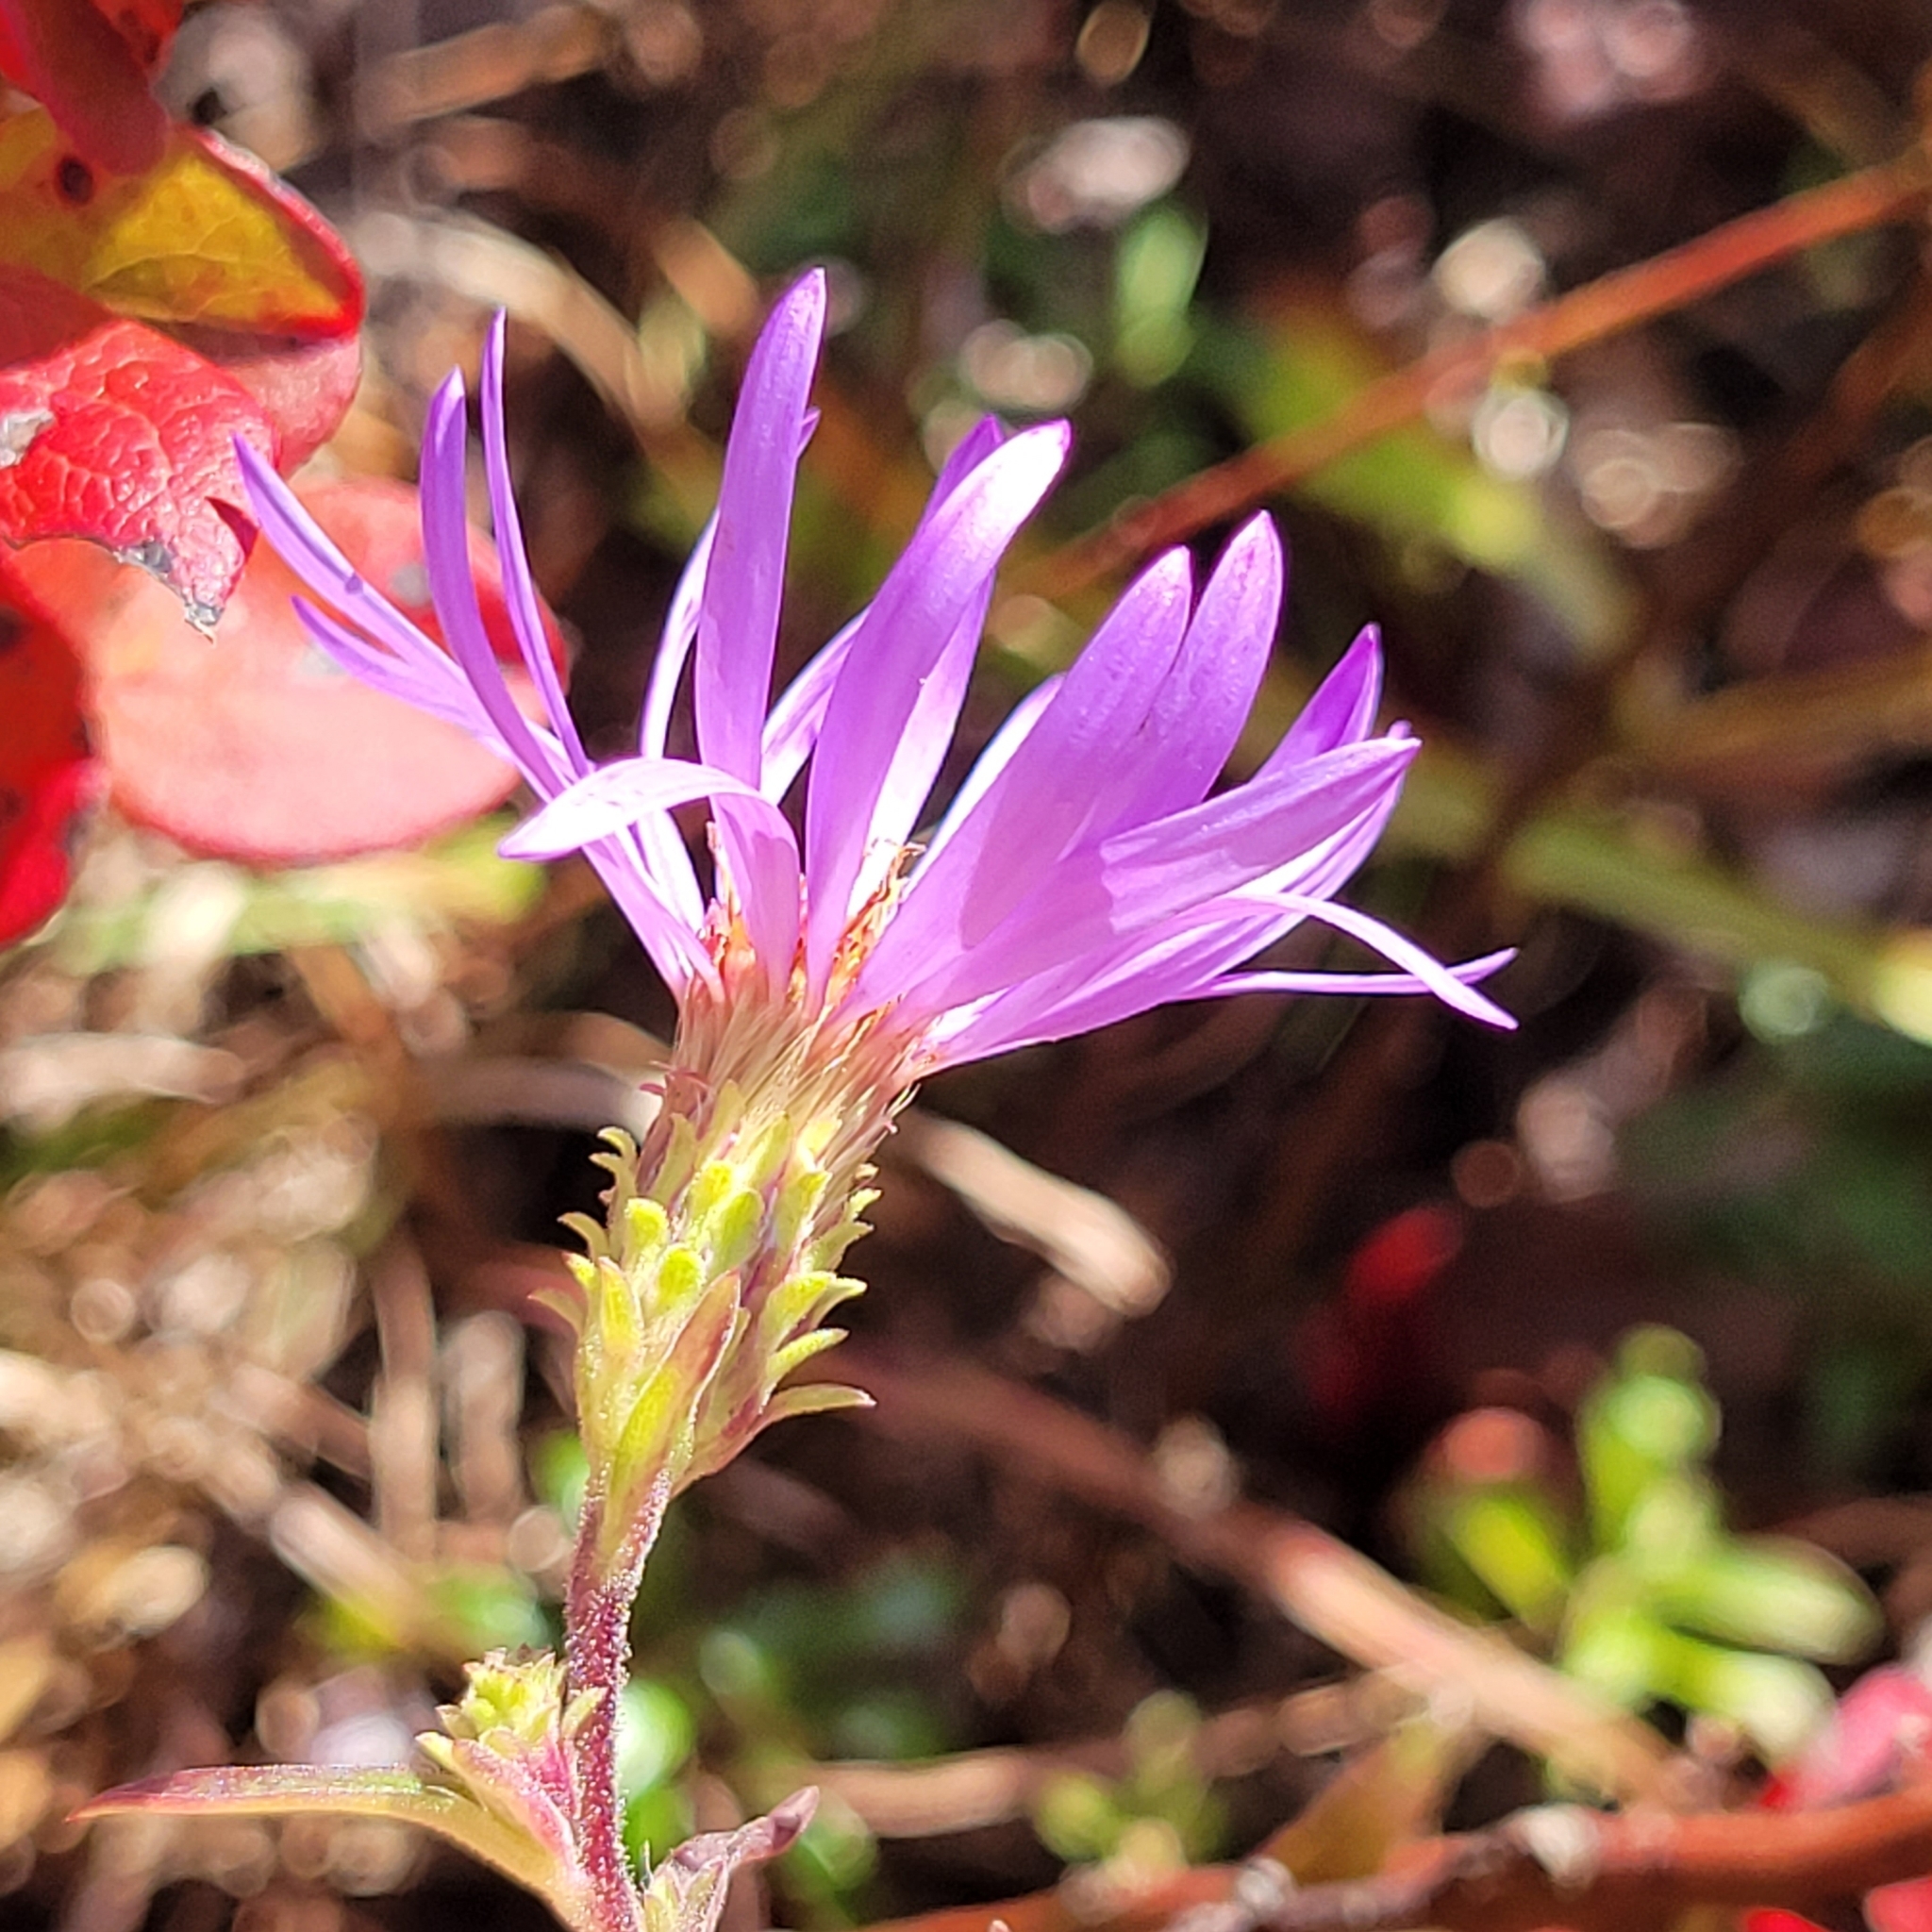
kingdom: Plantae
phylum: Tracheophyta
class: Magnoliopsida
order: Asterales
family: Asteraceae
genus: Eurybia
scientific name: Eurybia spectabilis
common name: Low showy aster
